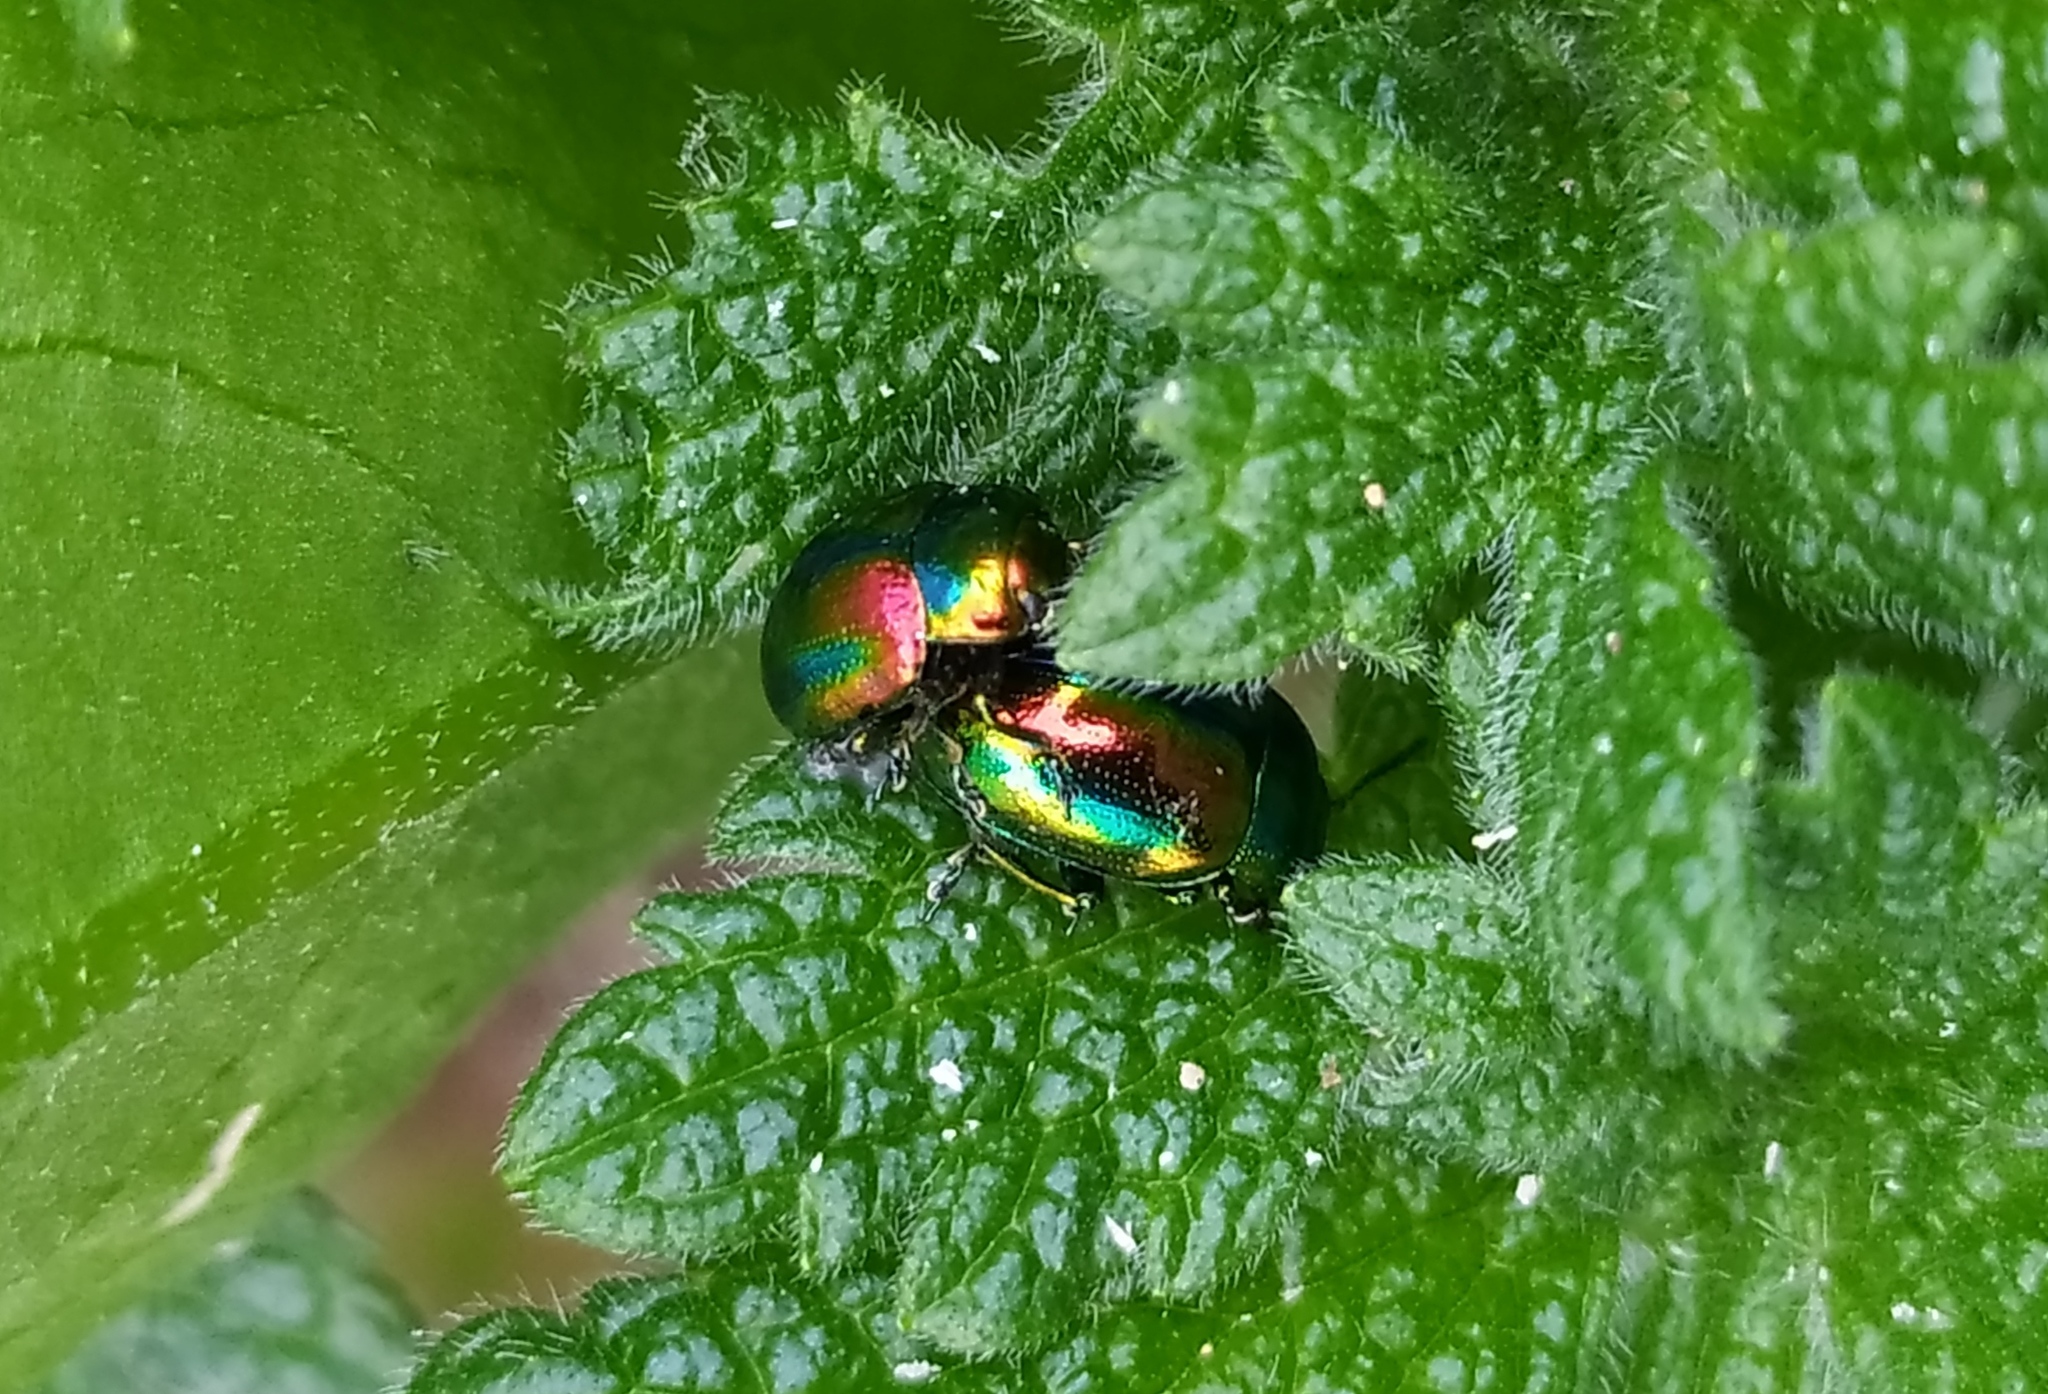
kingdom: Animalia
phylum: Arthropoda
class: Insecta
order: Coleoptera
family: Chrysomelidae
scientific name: Chrysomelidae
